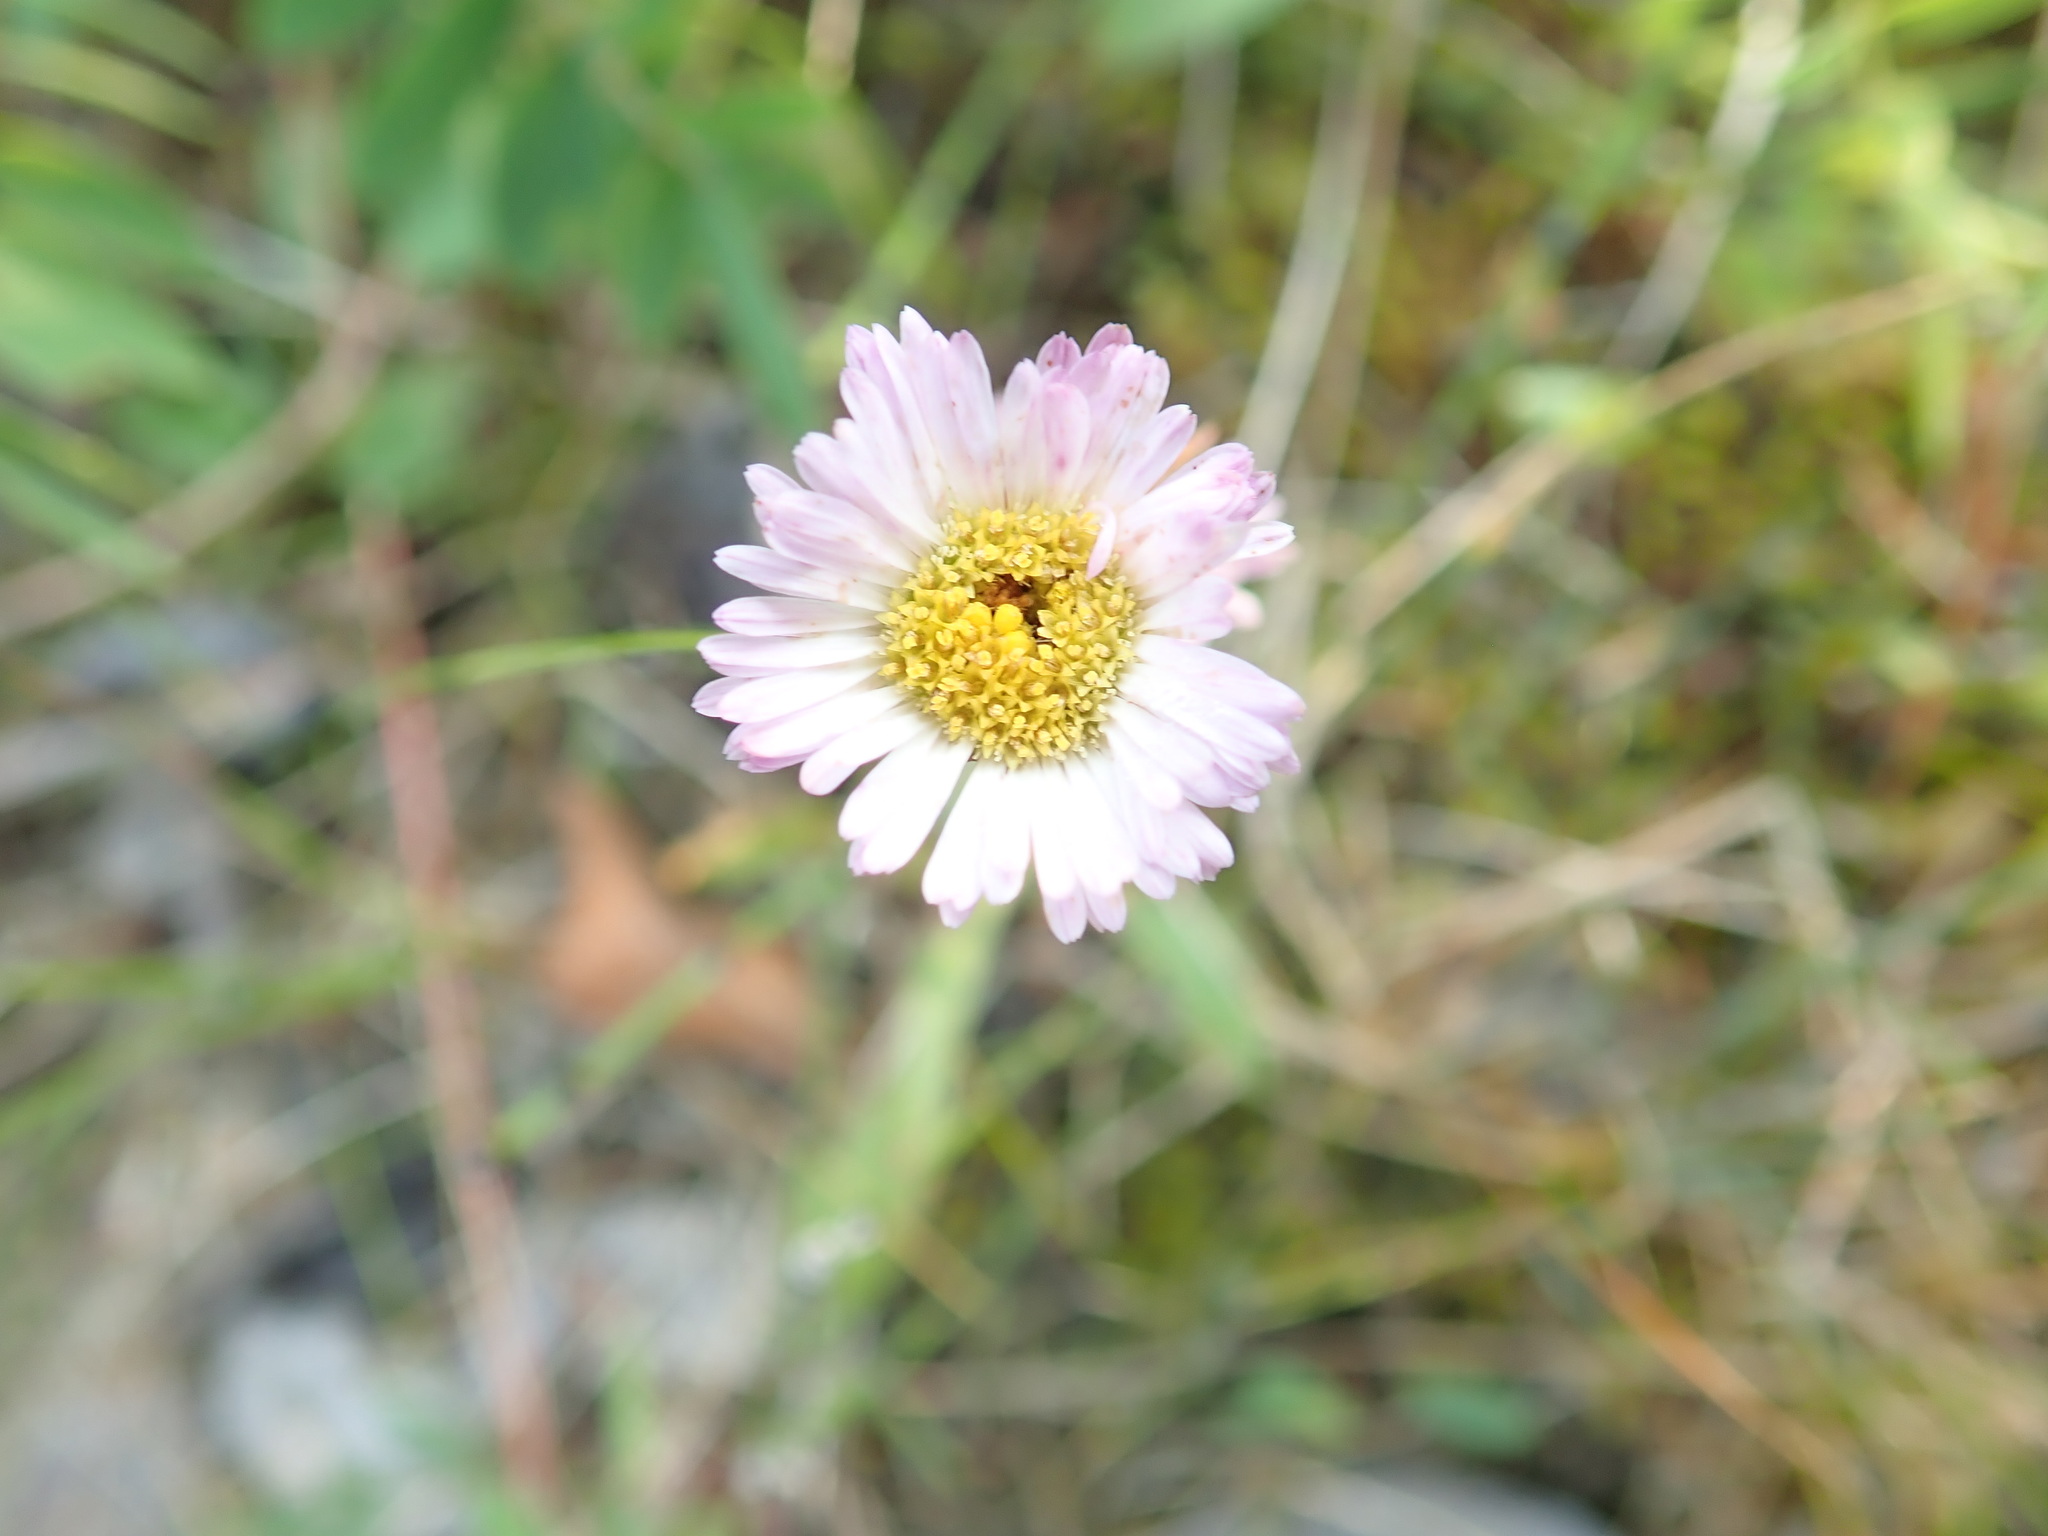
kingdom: Plantae
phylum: Tracheophyta
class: Magnoliopsida
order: Asterales
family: Asteraceae
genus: Erigeron
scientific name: Erigeron glabellus
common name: Smooth fleabane
